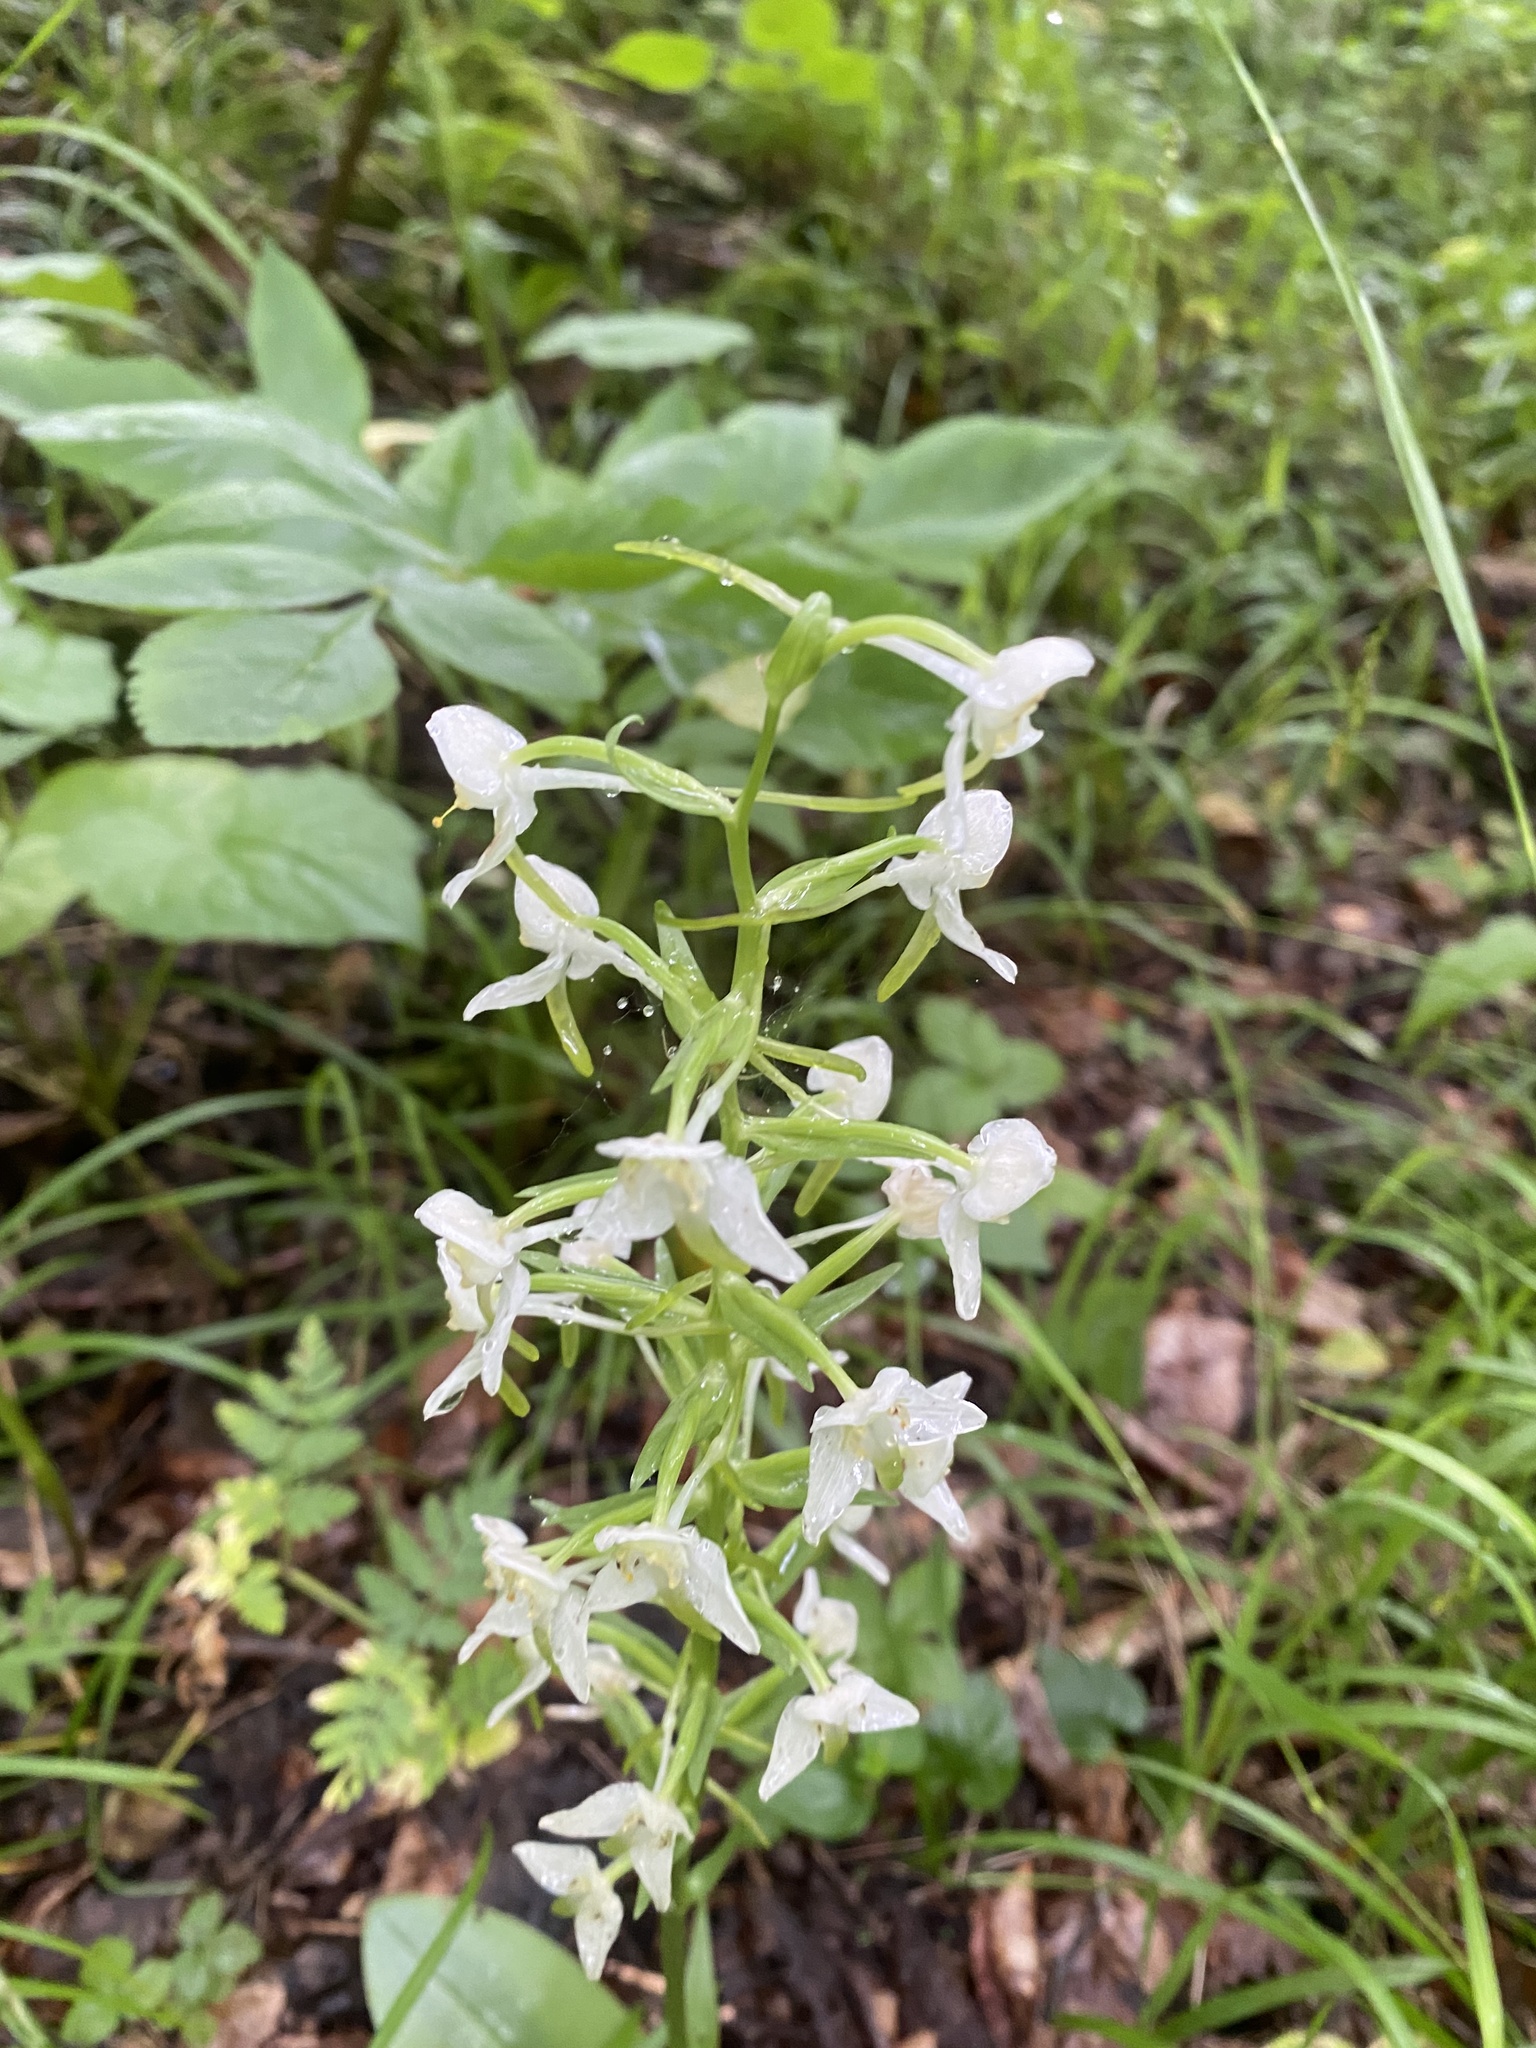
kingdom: Plantae
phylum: Tracheophyta
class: Liliopsida
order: Asparagales
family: Orchidaceae
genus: Platanthera
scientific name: Platanthera chlorantha
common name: Greater butterfly-orchid
